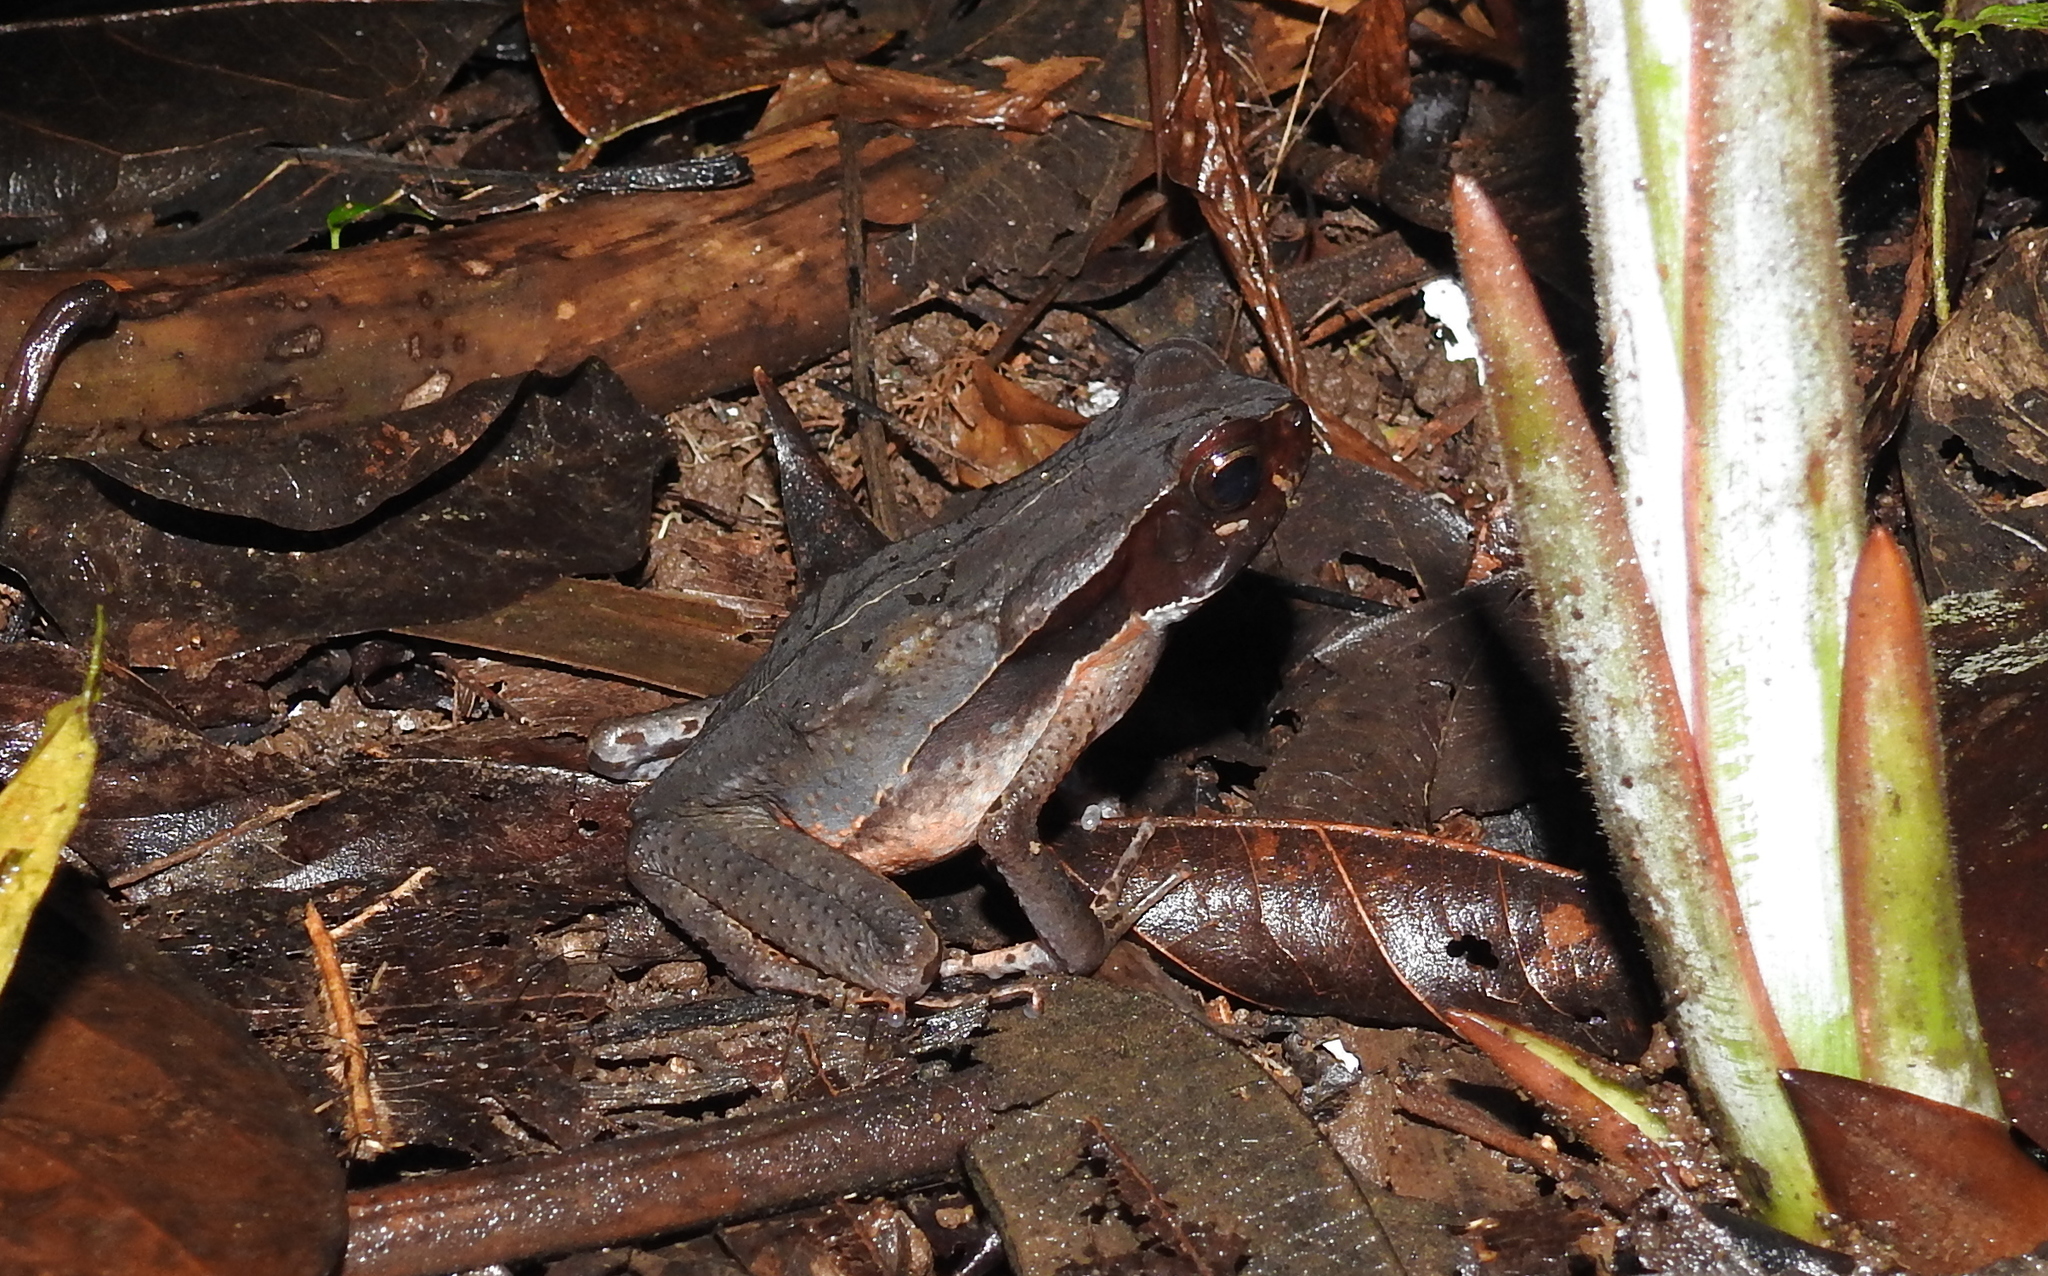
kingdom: Animalia
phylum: Chordata
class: Amphibia
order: Anura
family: Bufonidae
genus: Rhaebo
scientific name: Rhaebo haematiticus
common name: Truando toad
